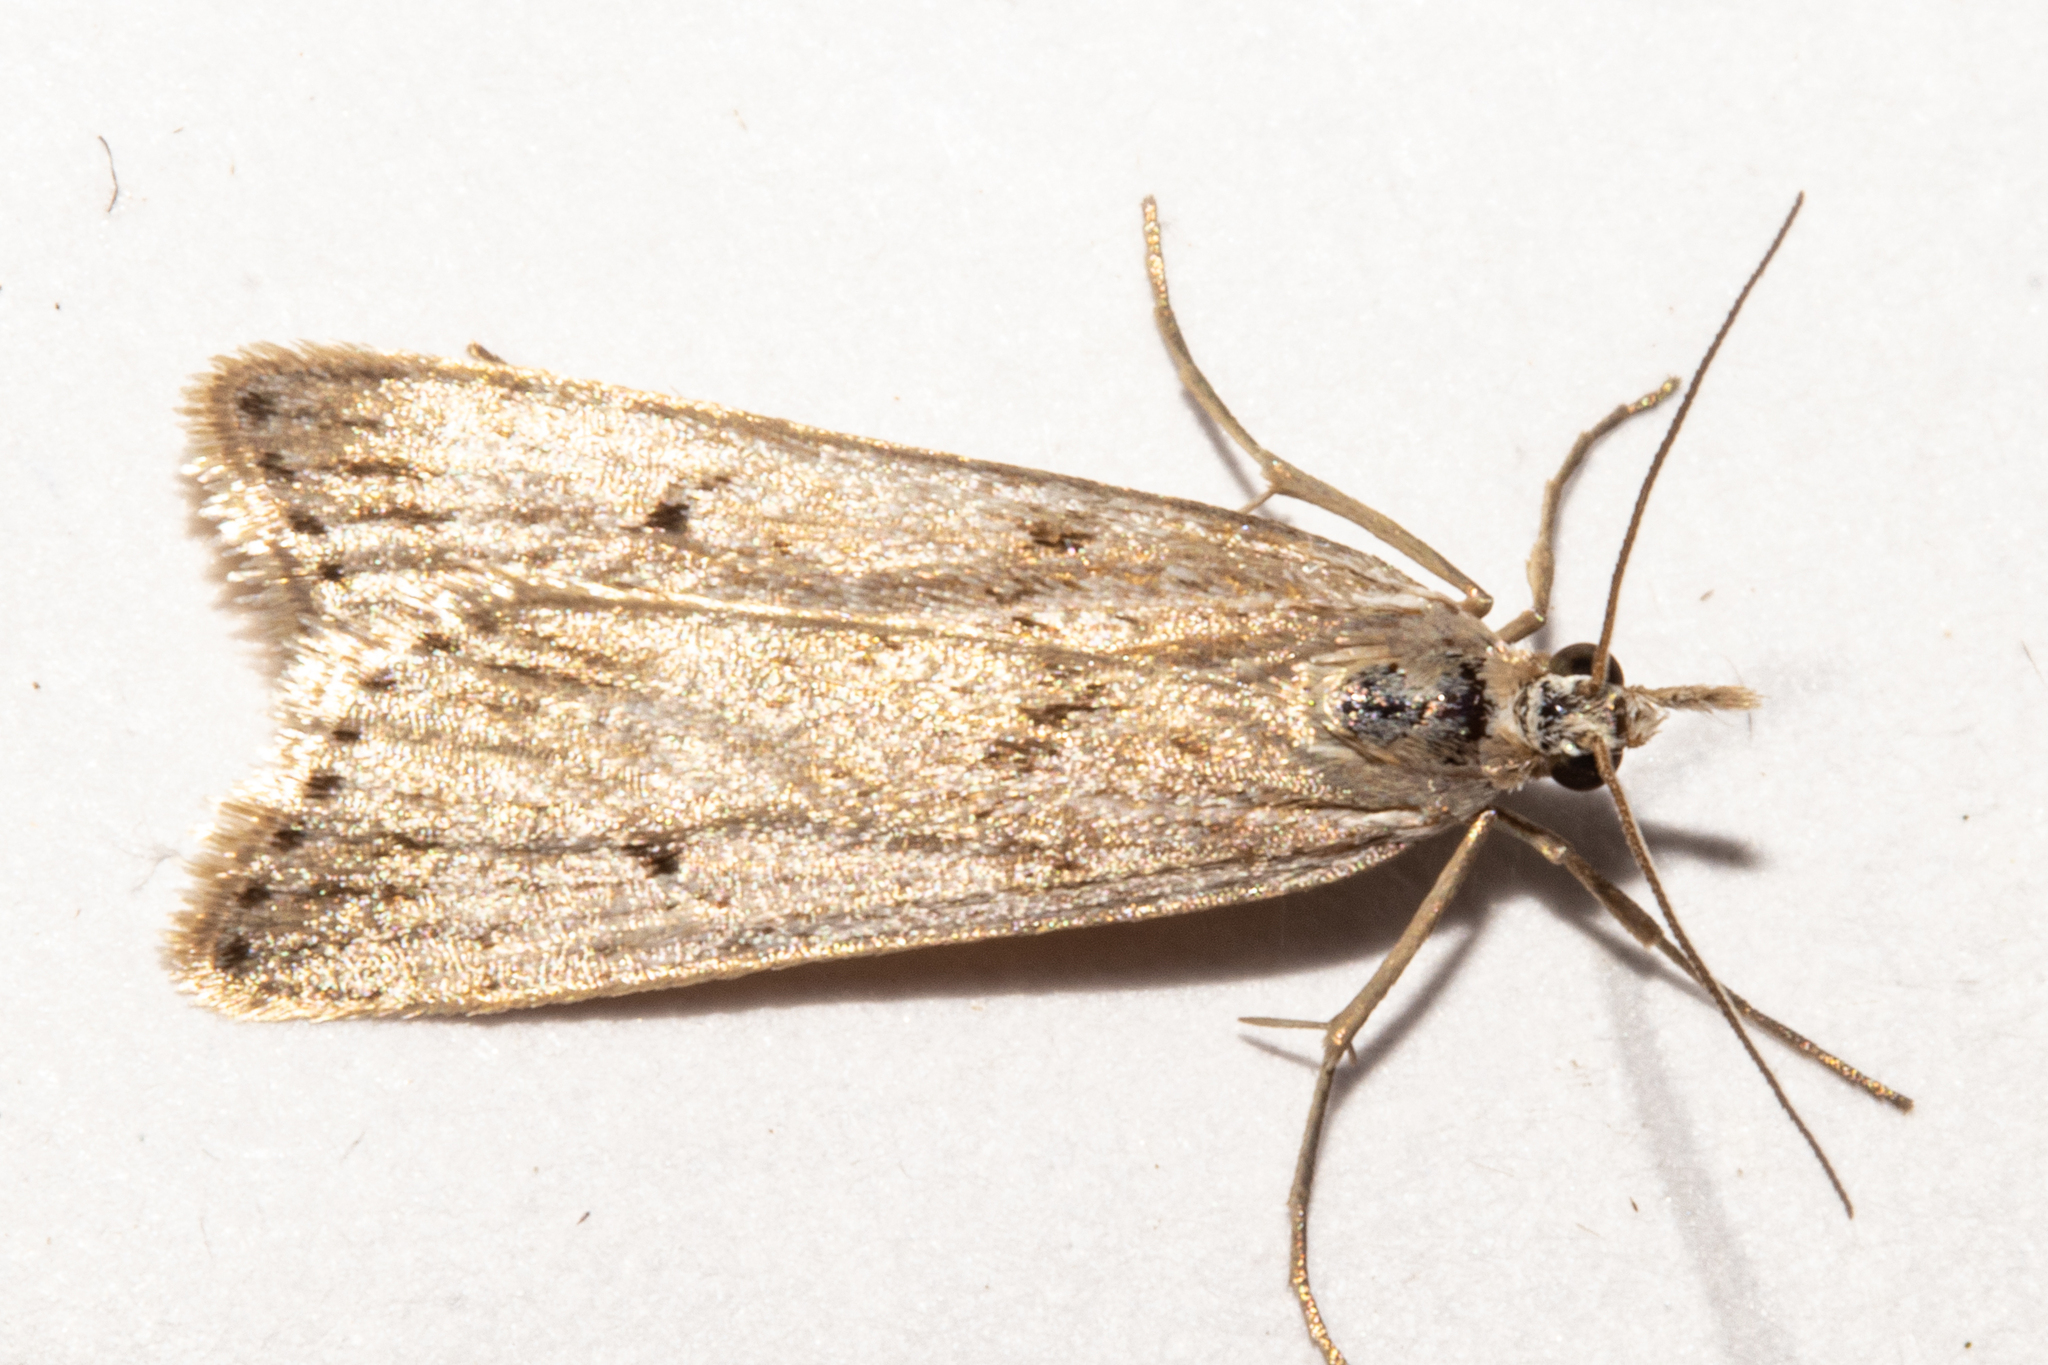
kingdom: Animalia
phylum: Arthropoda
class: Insecta
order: Lepidoptera
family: Crambidae
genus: Eudonia
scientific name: Eudonia deltophora
